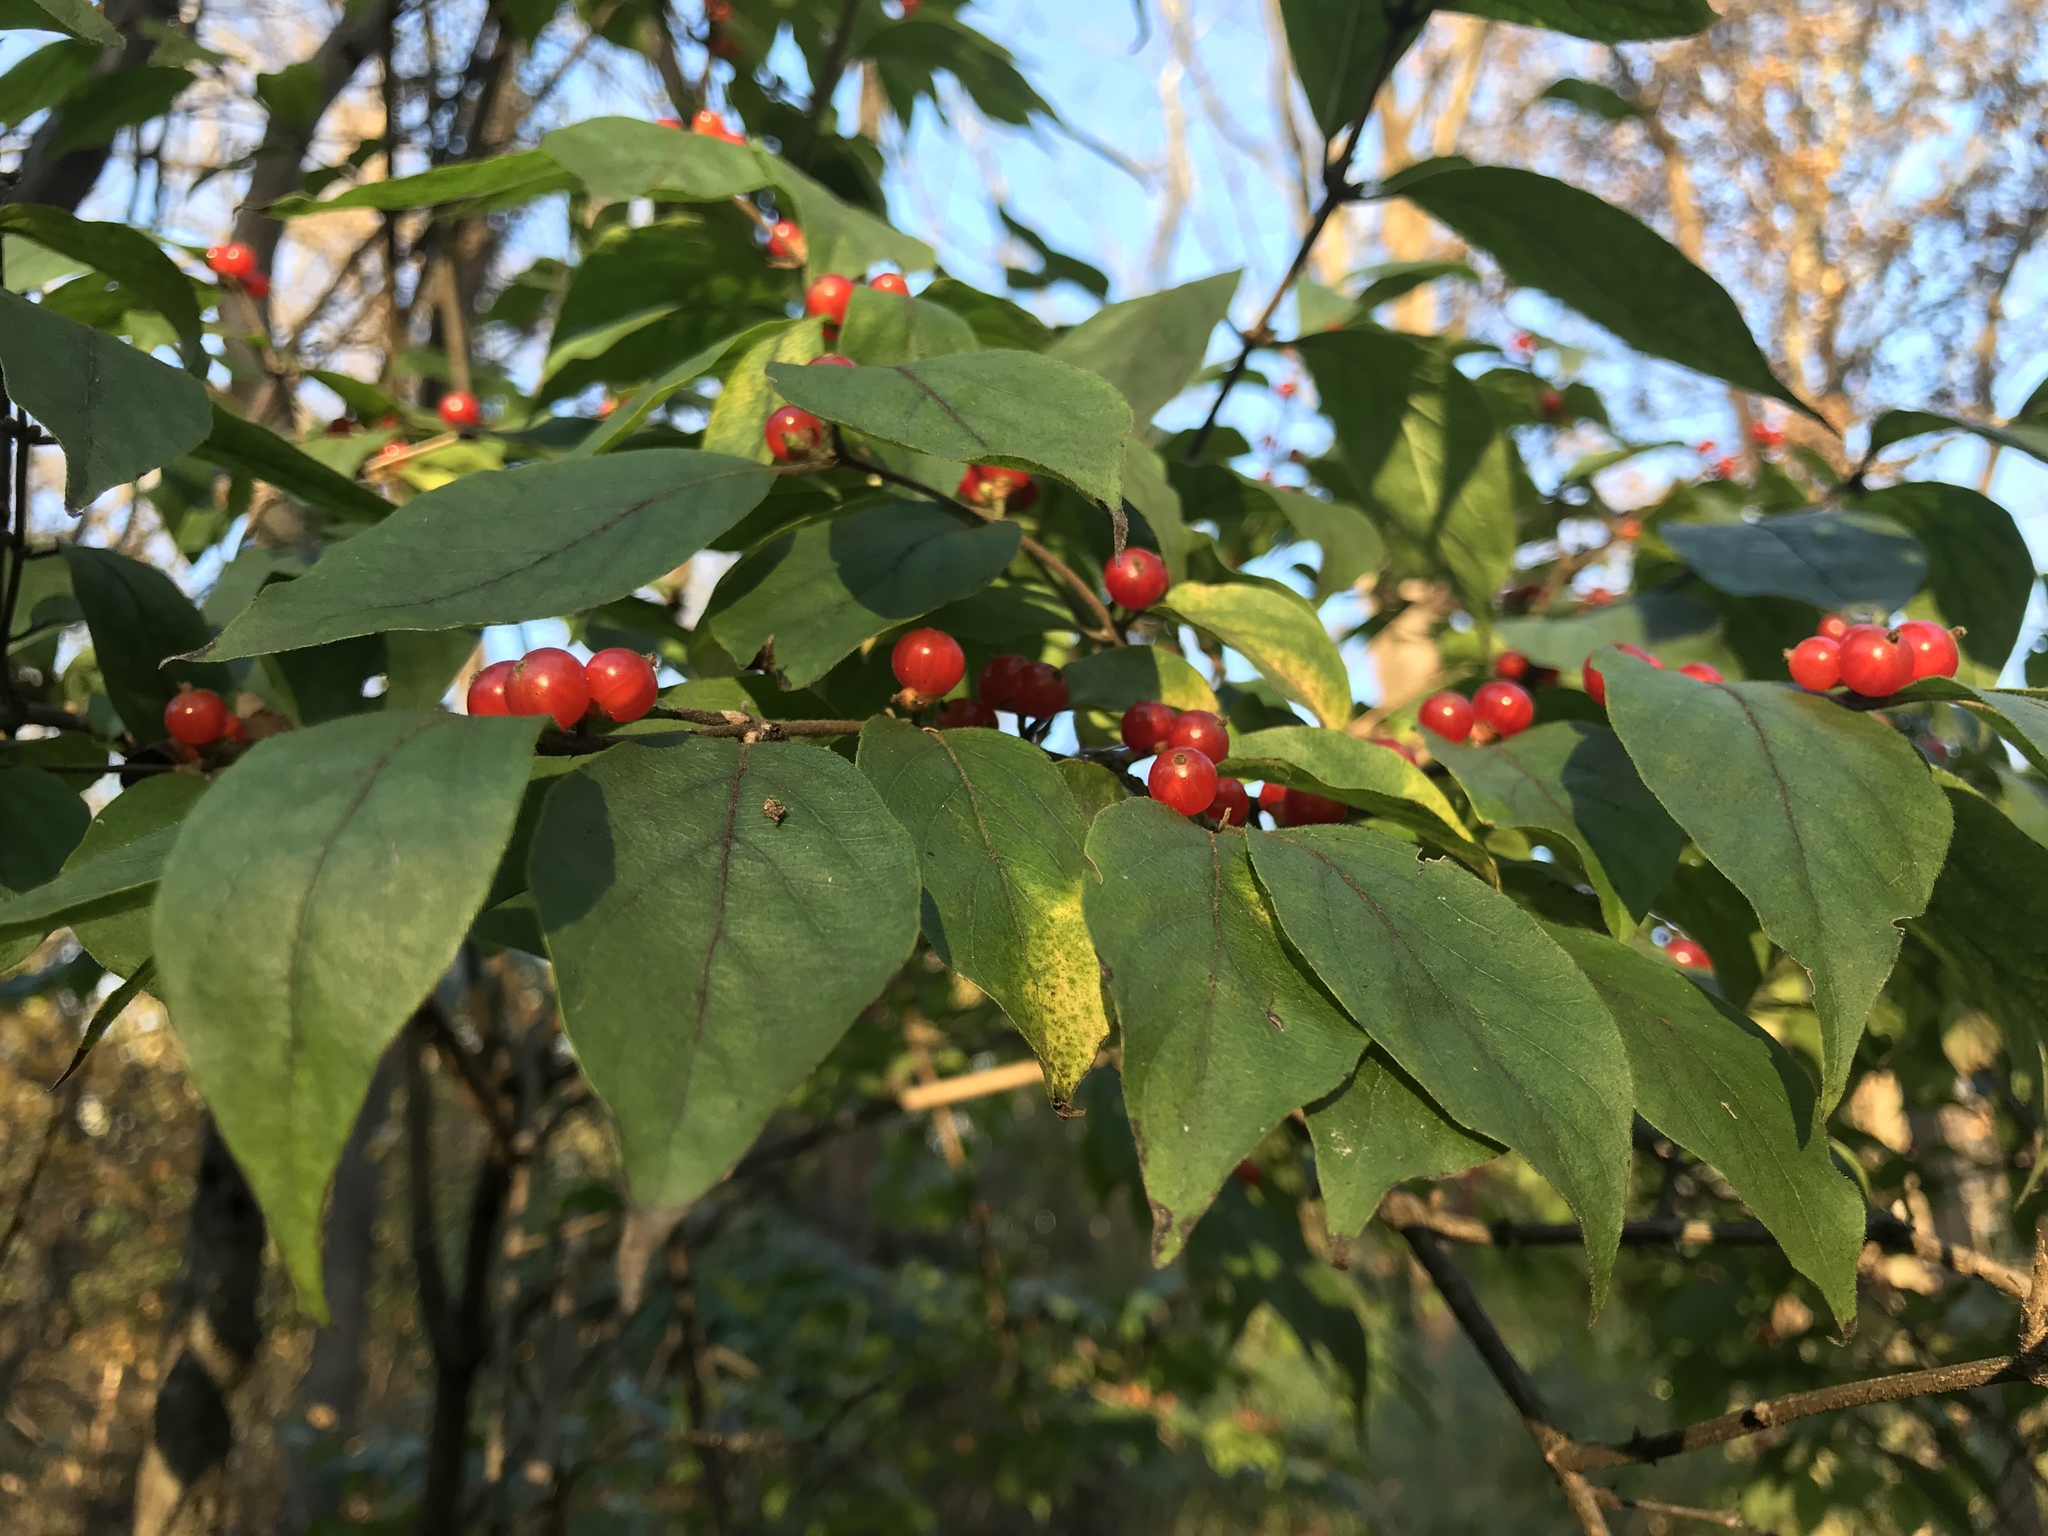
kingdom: Plantae
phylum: Tracheophyta
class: Magnoliopsida
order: Dipsacales
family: Caprifoliaceae
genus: Lonicera
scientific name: Lonicera maackii
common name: Amur honeysuckle
